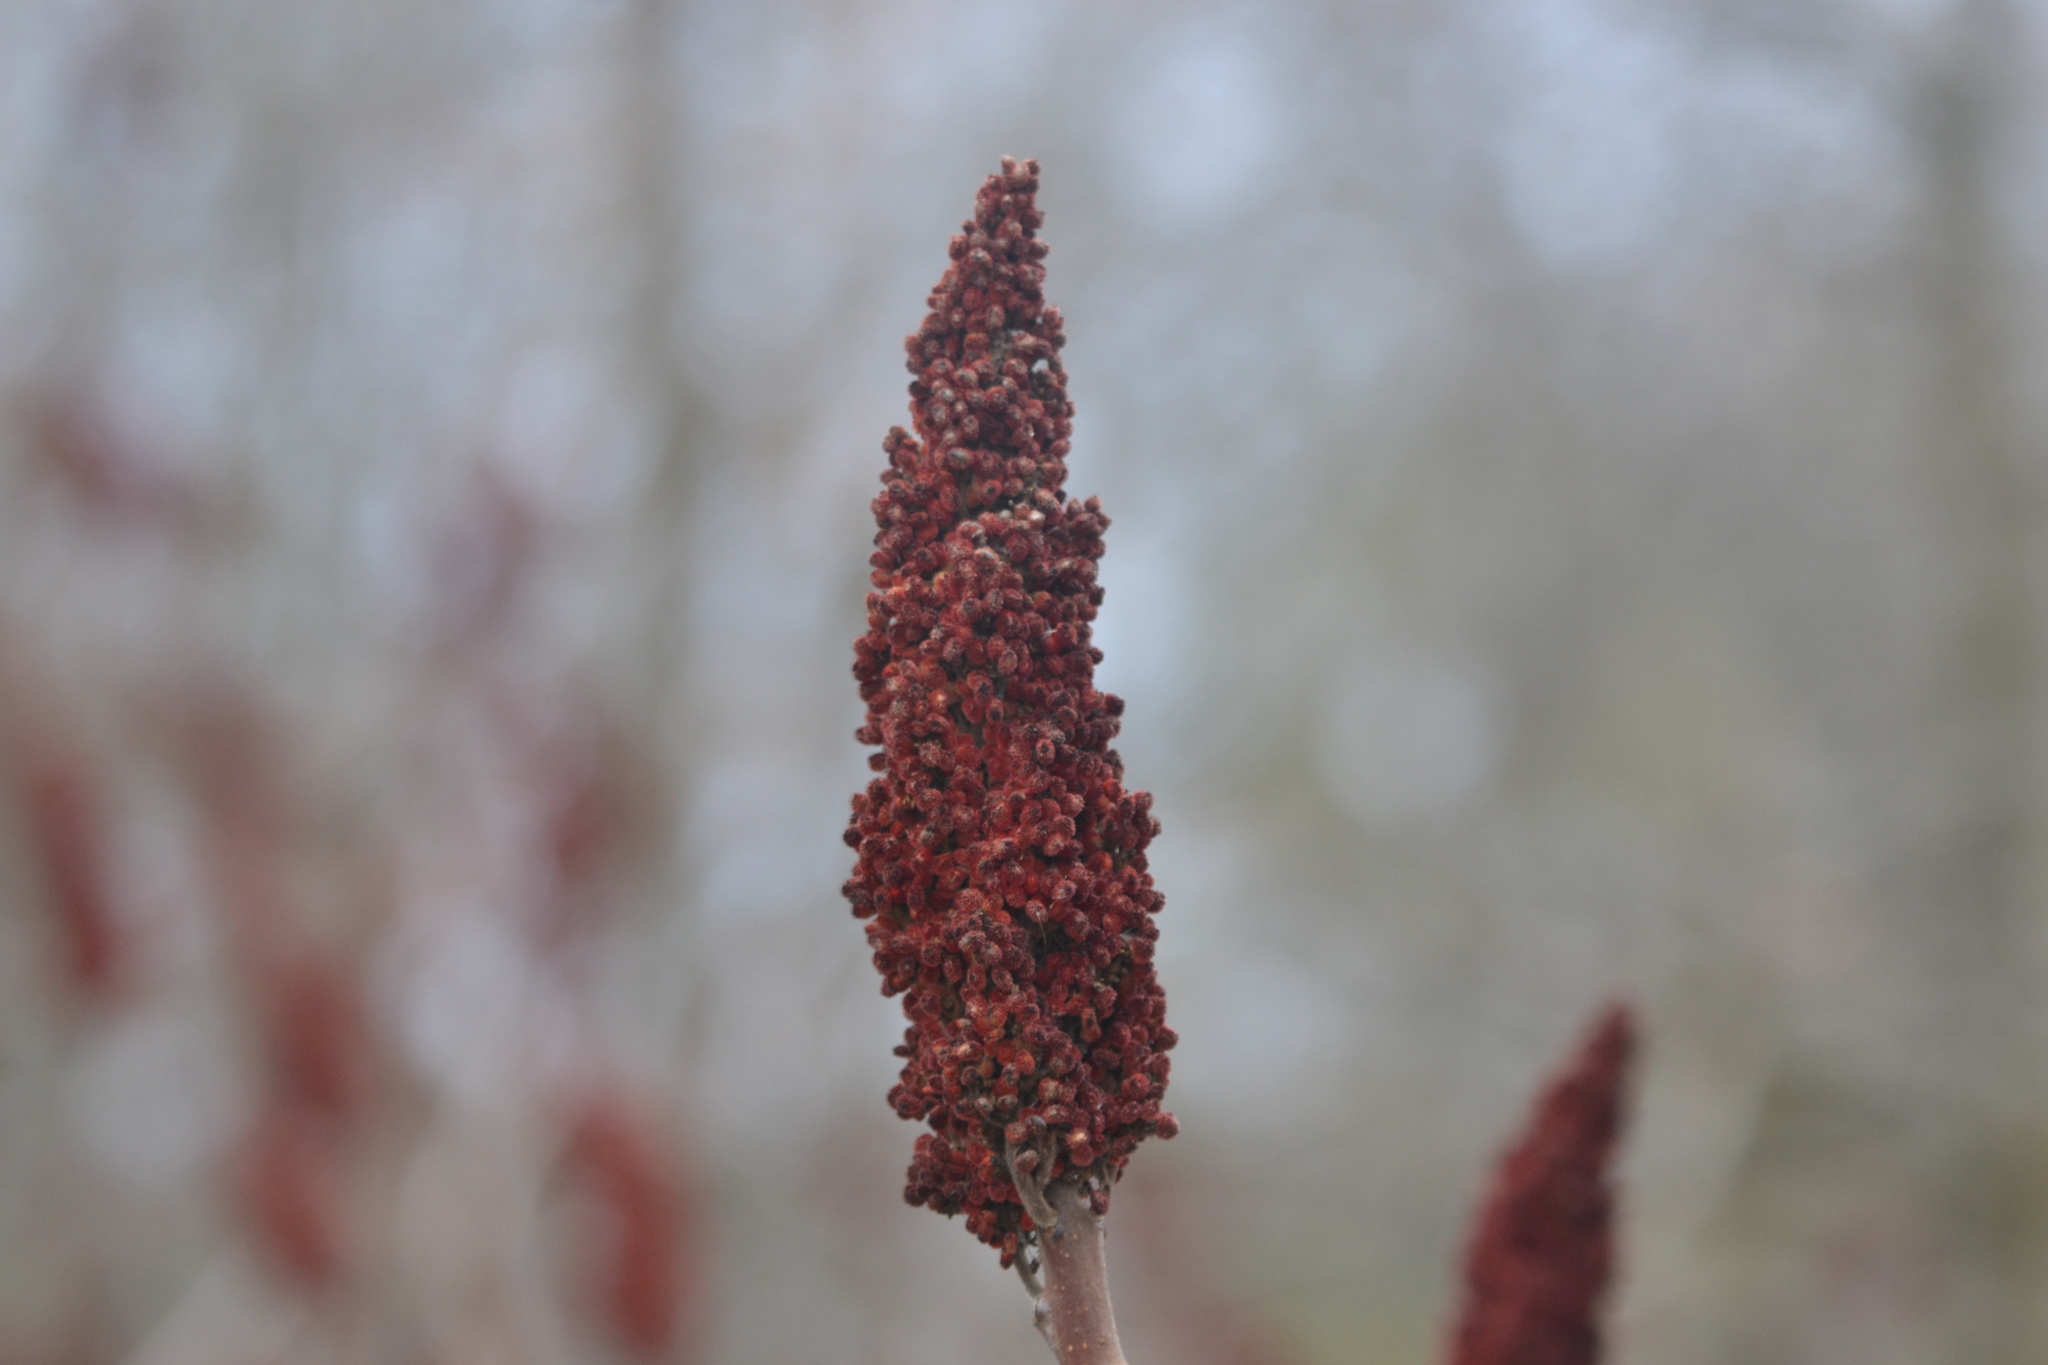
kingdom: Plantae
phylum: Tracheophyta
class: Magnoliopsida
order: Sapindales
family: Anacardiaceae
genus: Rhus
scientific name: Rhus typhina
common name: Staghorn sumac
